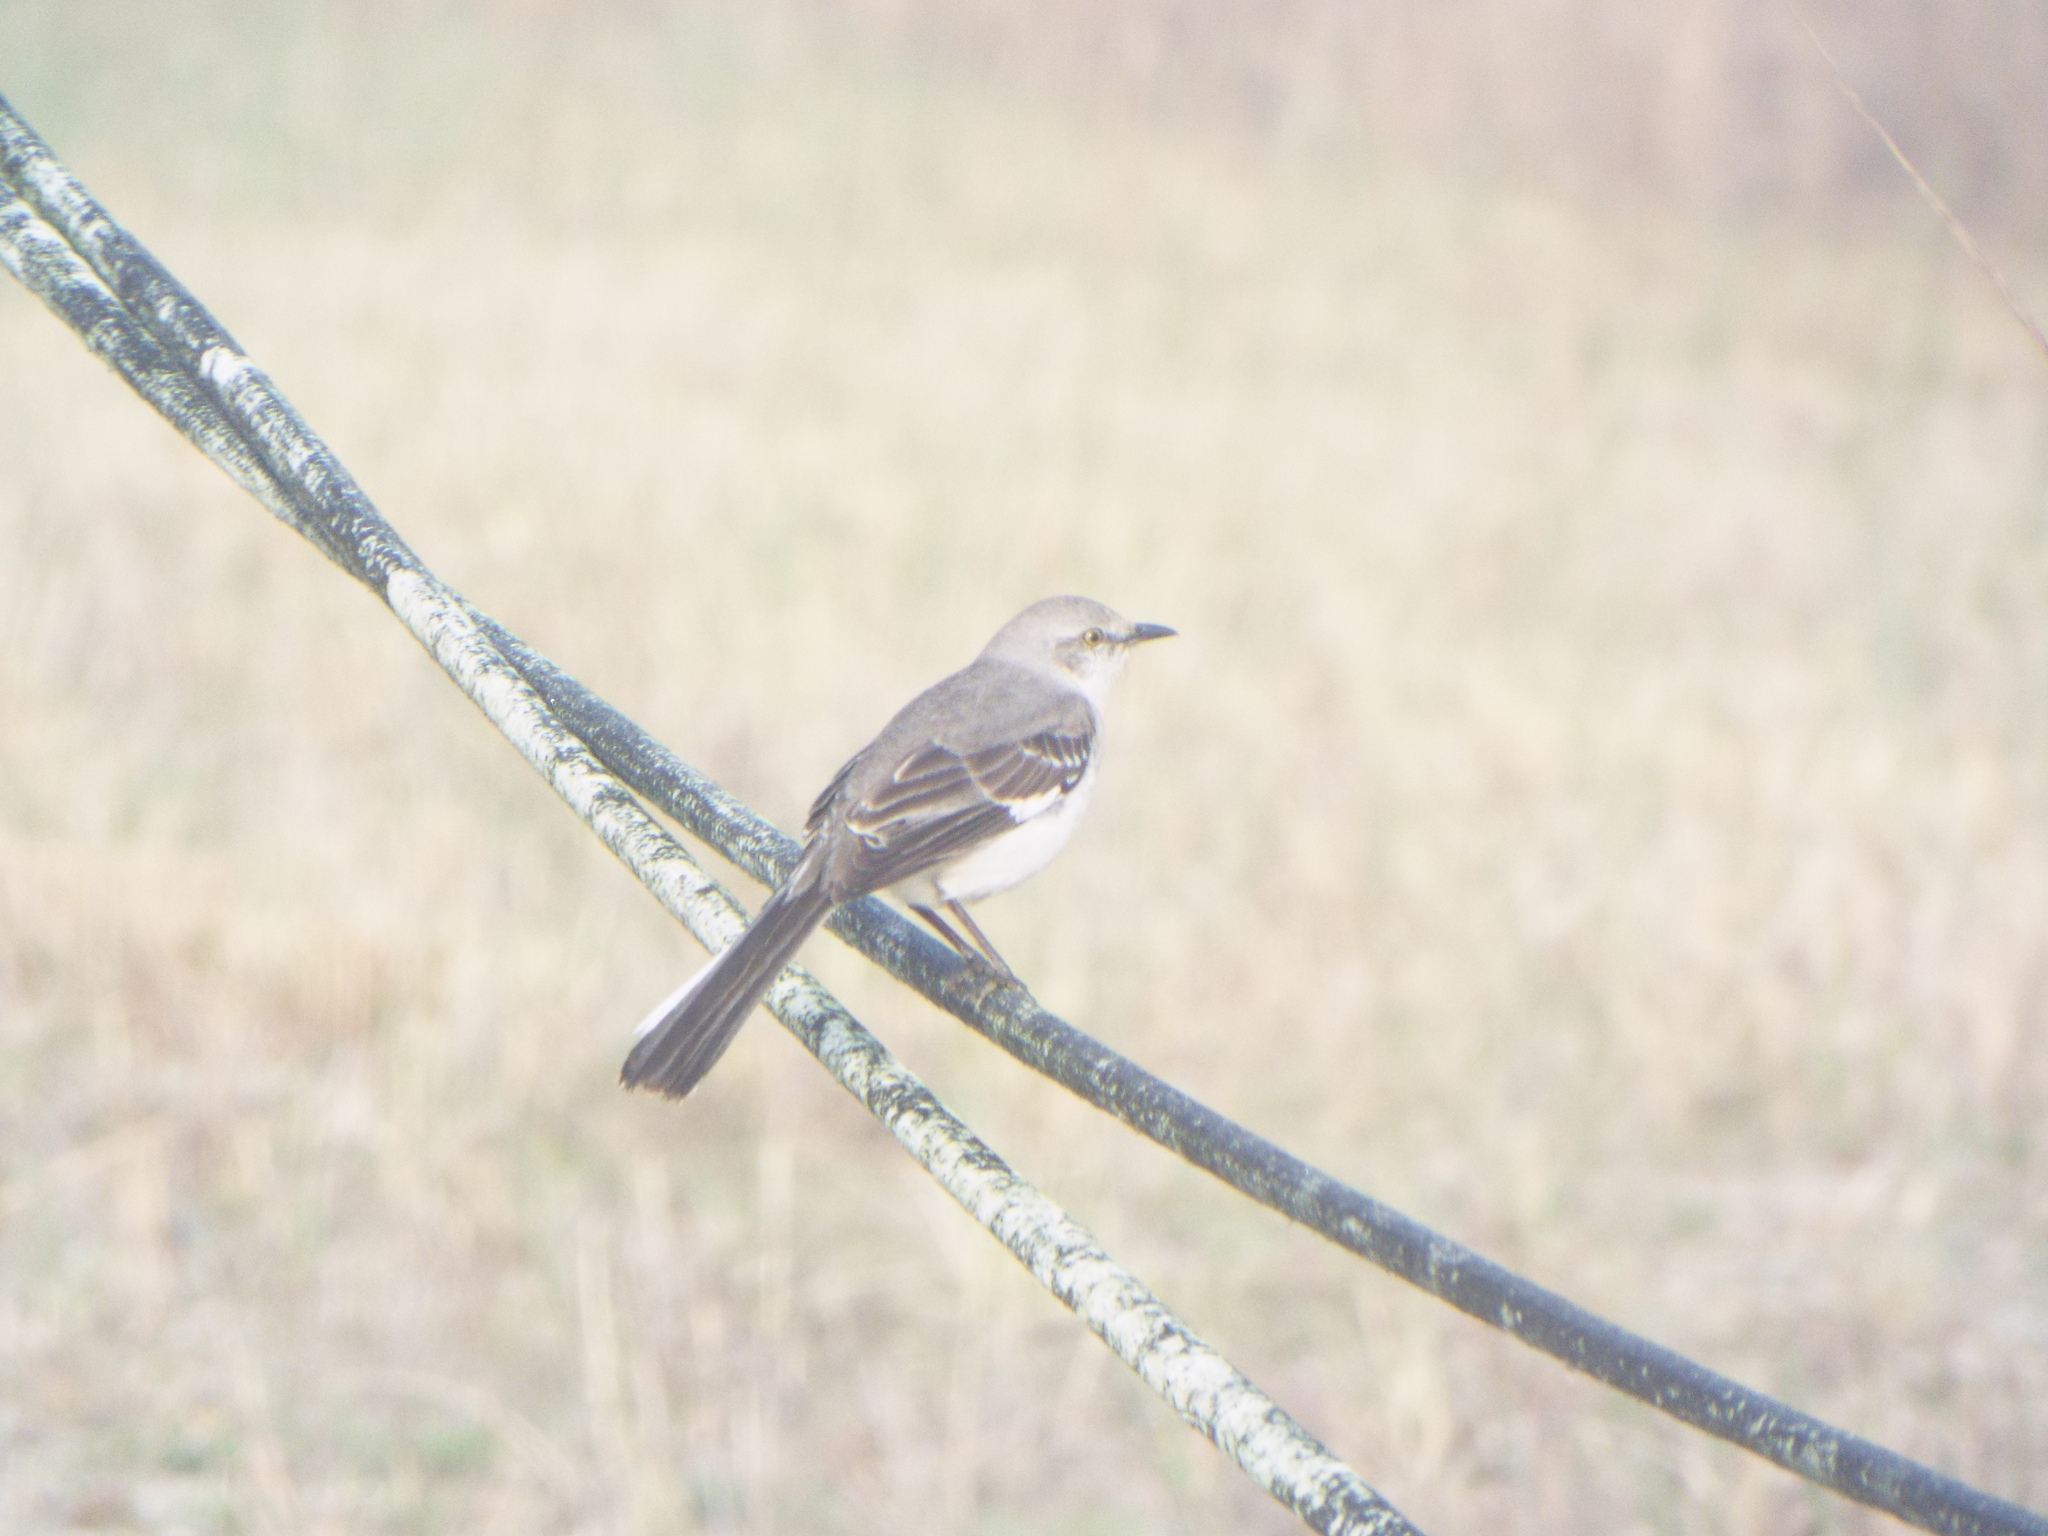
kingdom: Animalia
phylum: Chordata
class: Aves
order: Passeriformes
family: Mimidae
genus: Mimus
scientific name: Mimus polyglottos
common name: Northern mockingbird
